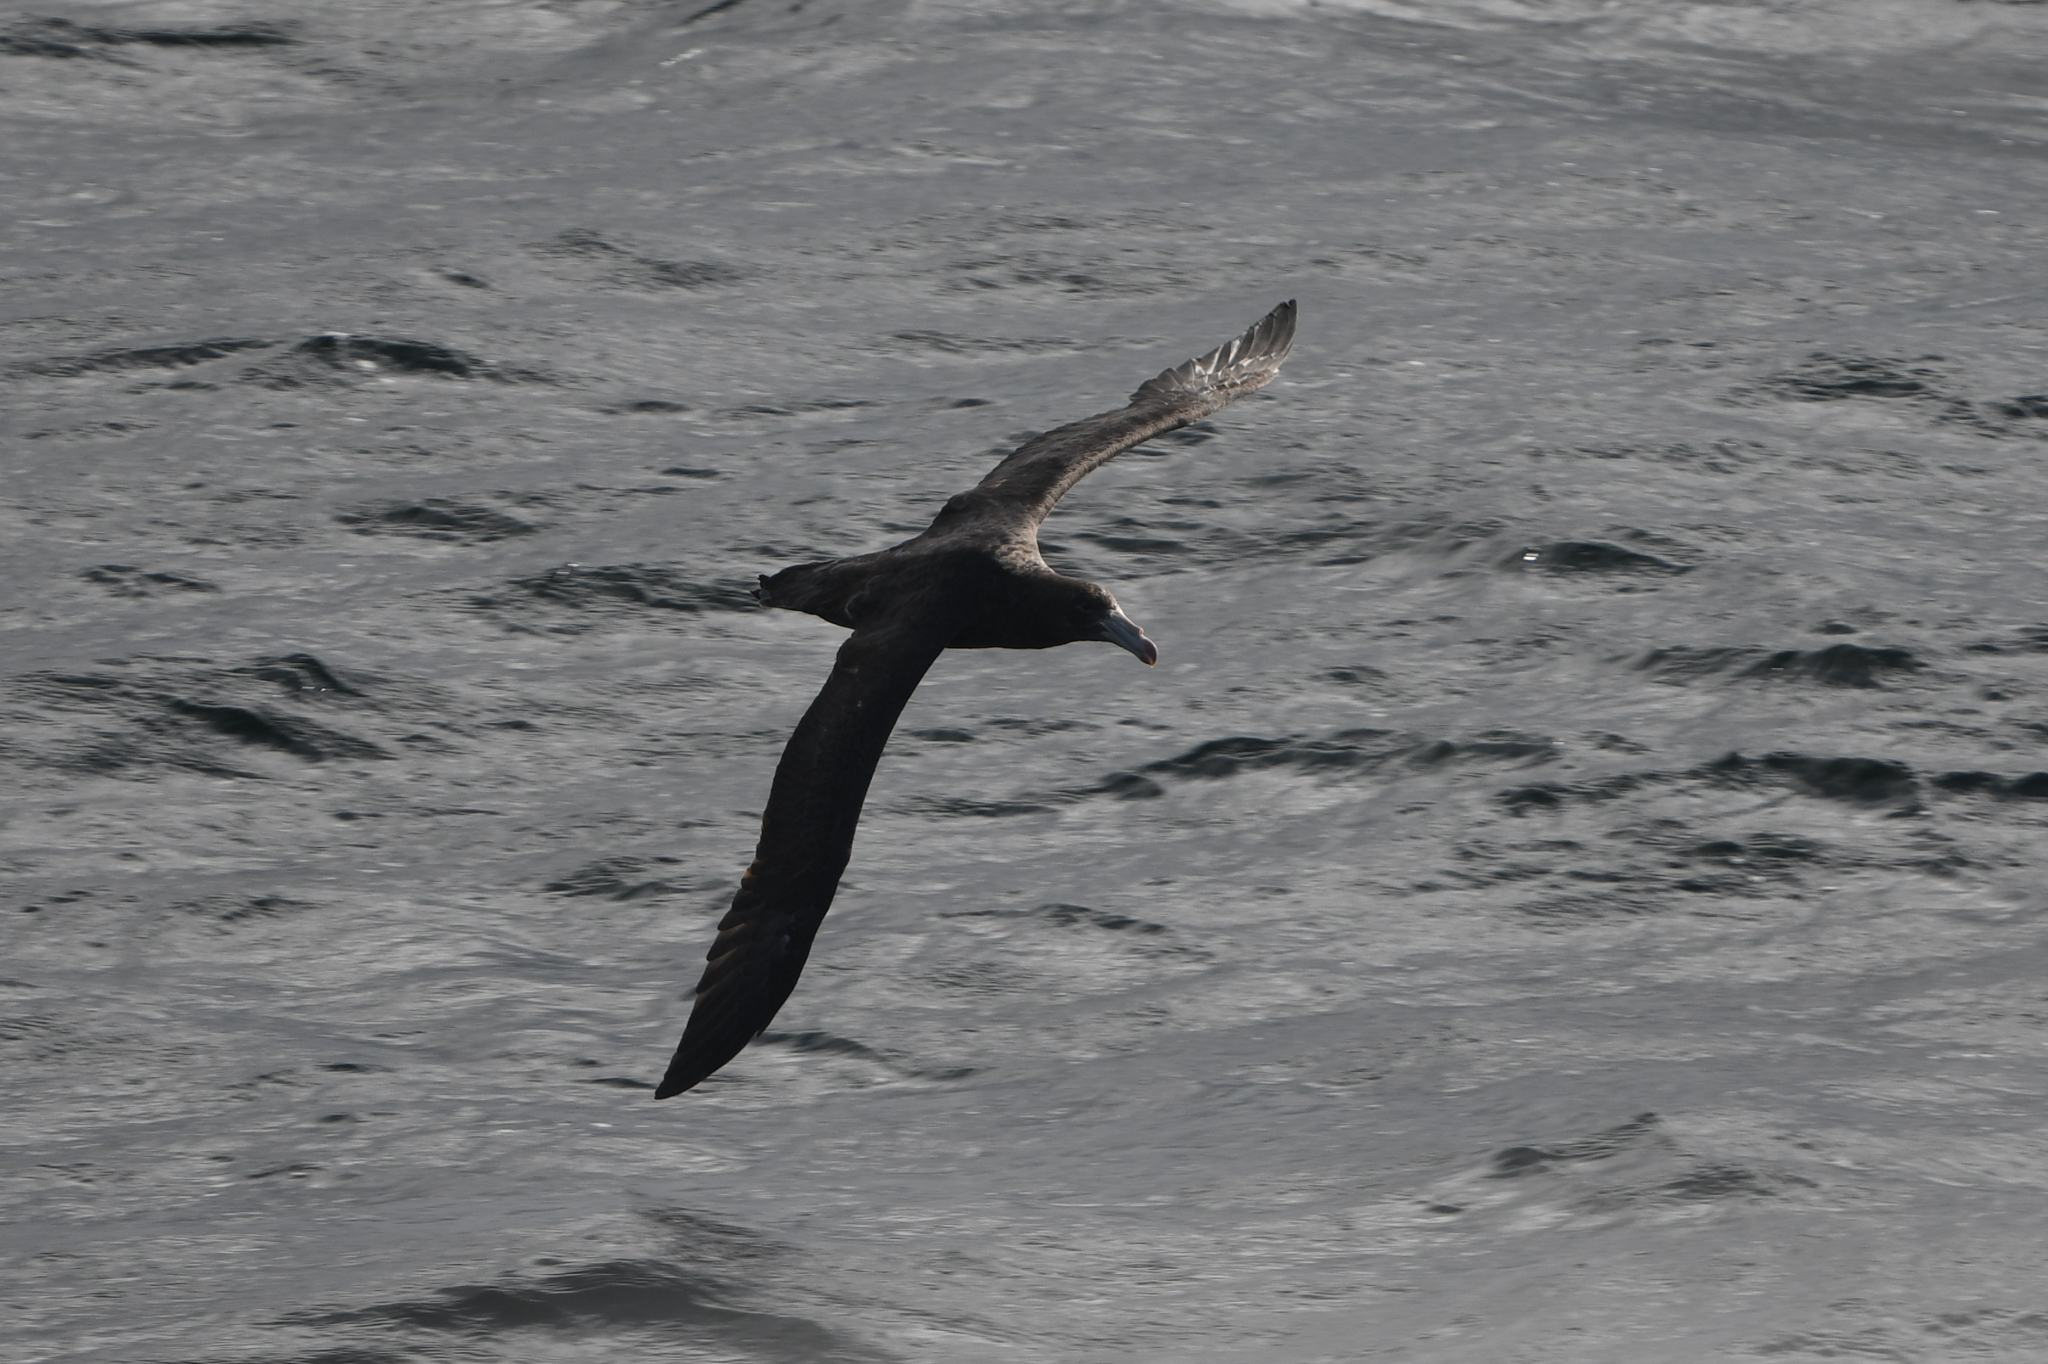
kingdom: Animalia
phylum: Chordata
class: Aves
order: Procellariiformes
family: Procellariidae
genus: Macronectes
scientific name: Macronectes halli
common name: Northern giant petrel
